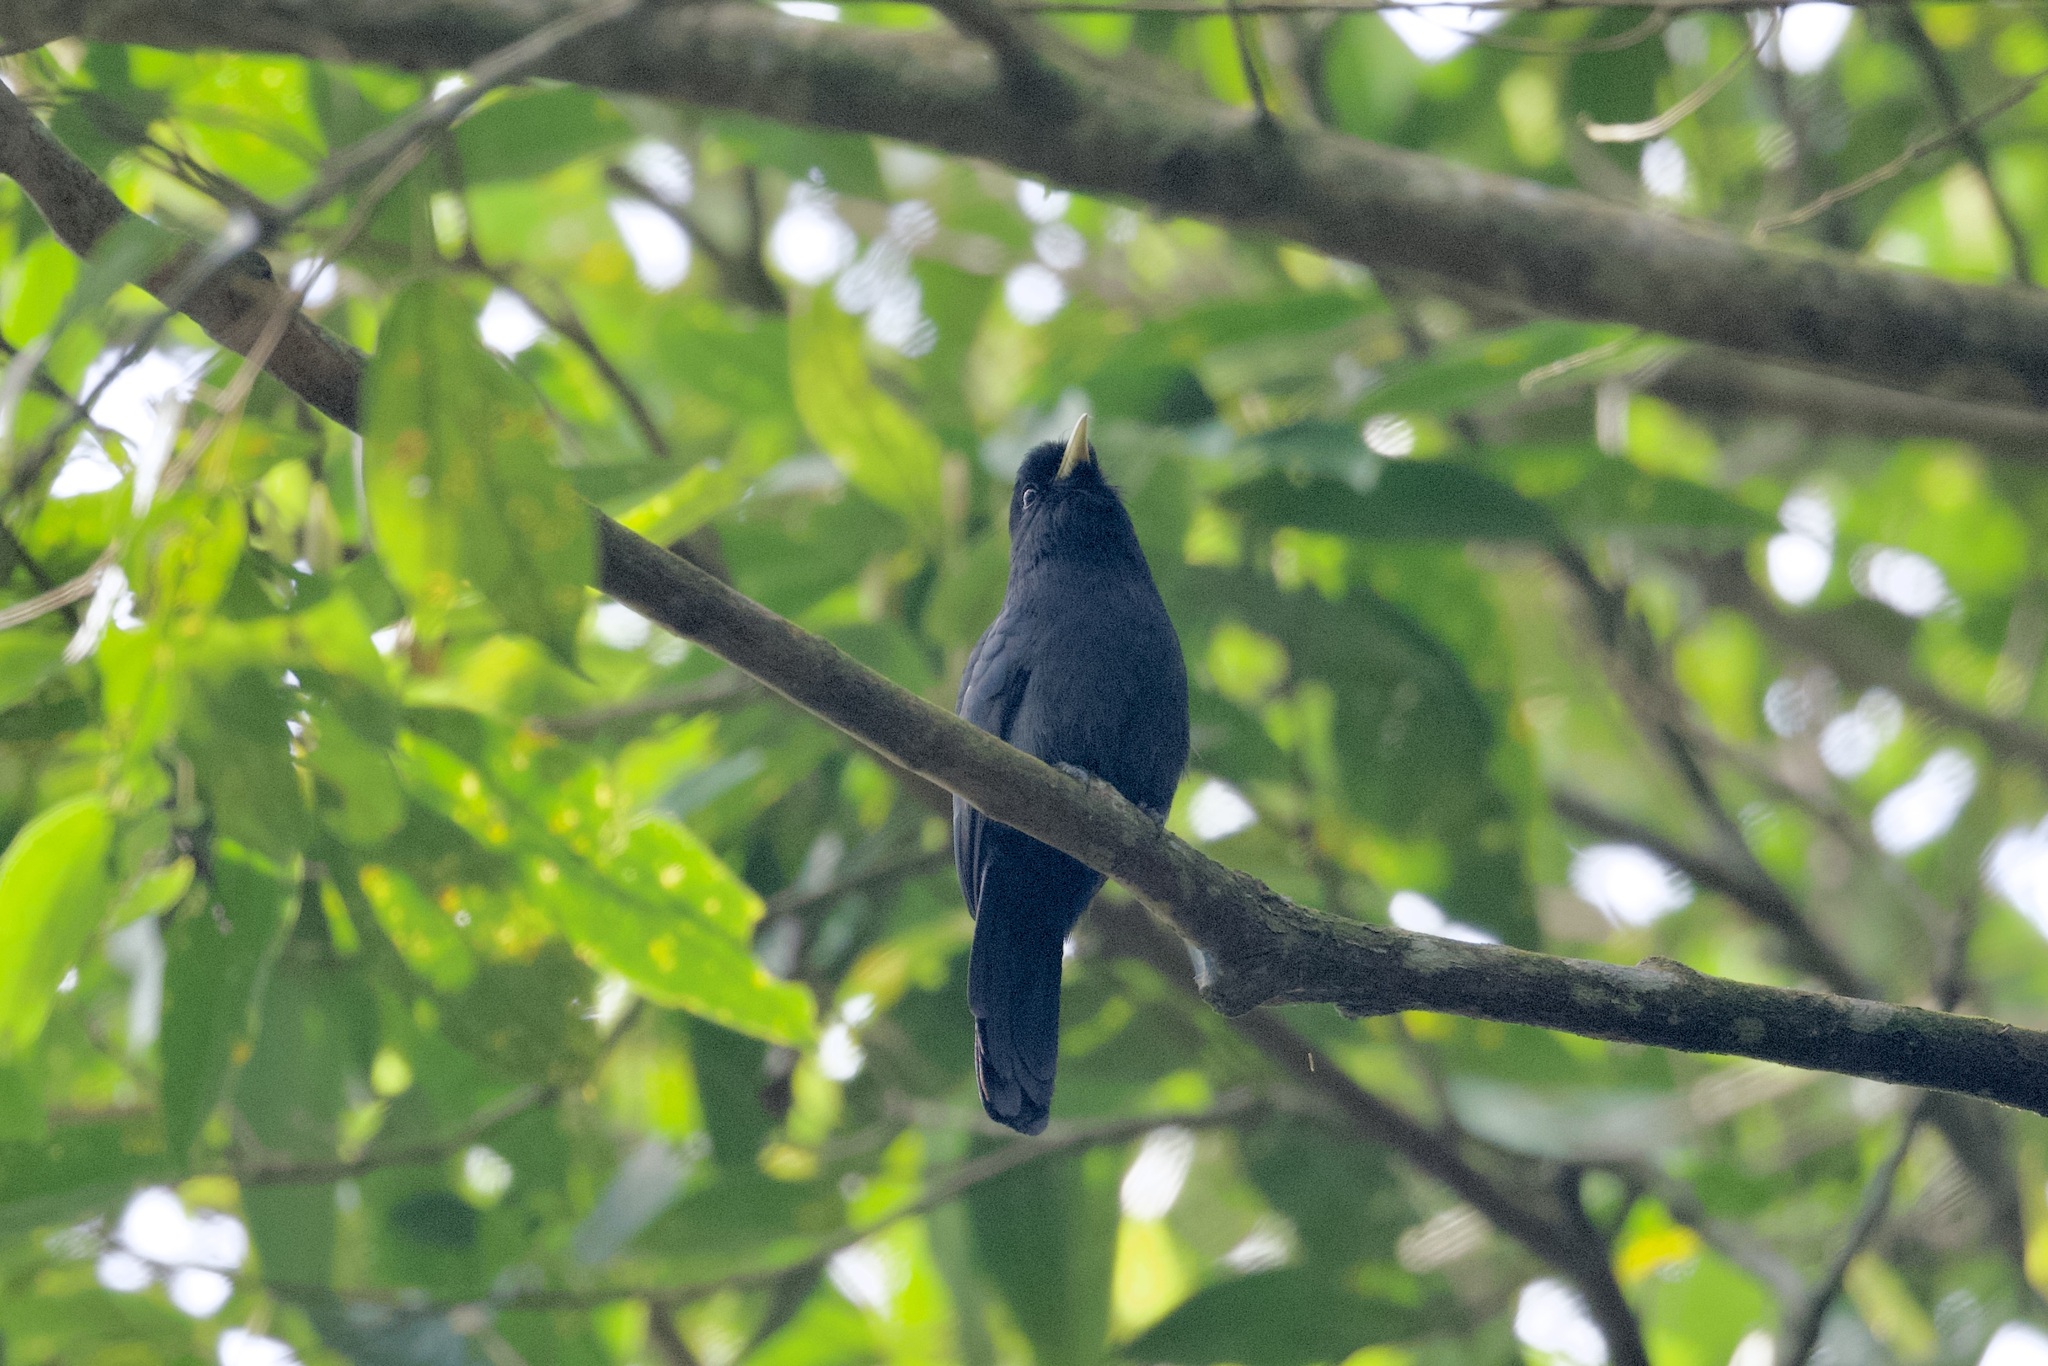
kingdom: Animalia
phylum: Chordata
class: Aves
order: Piciformes
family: Bucconidae
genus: Monasa
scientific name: Monasa flavirostris
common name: Yellow-billed nunbird
